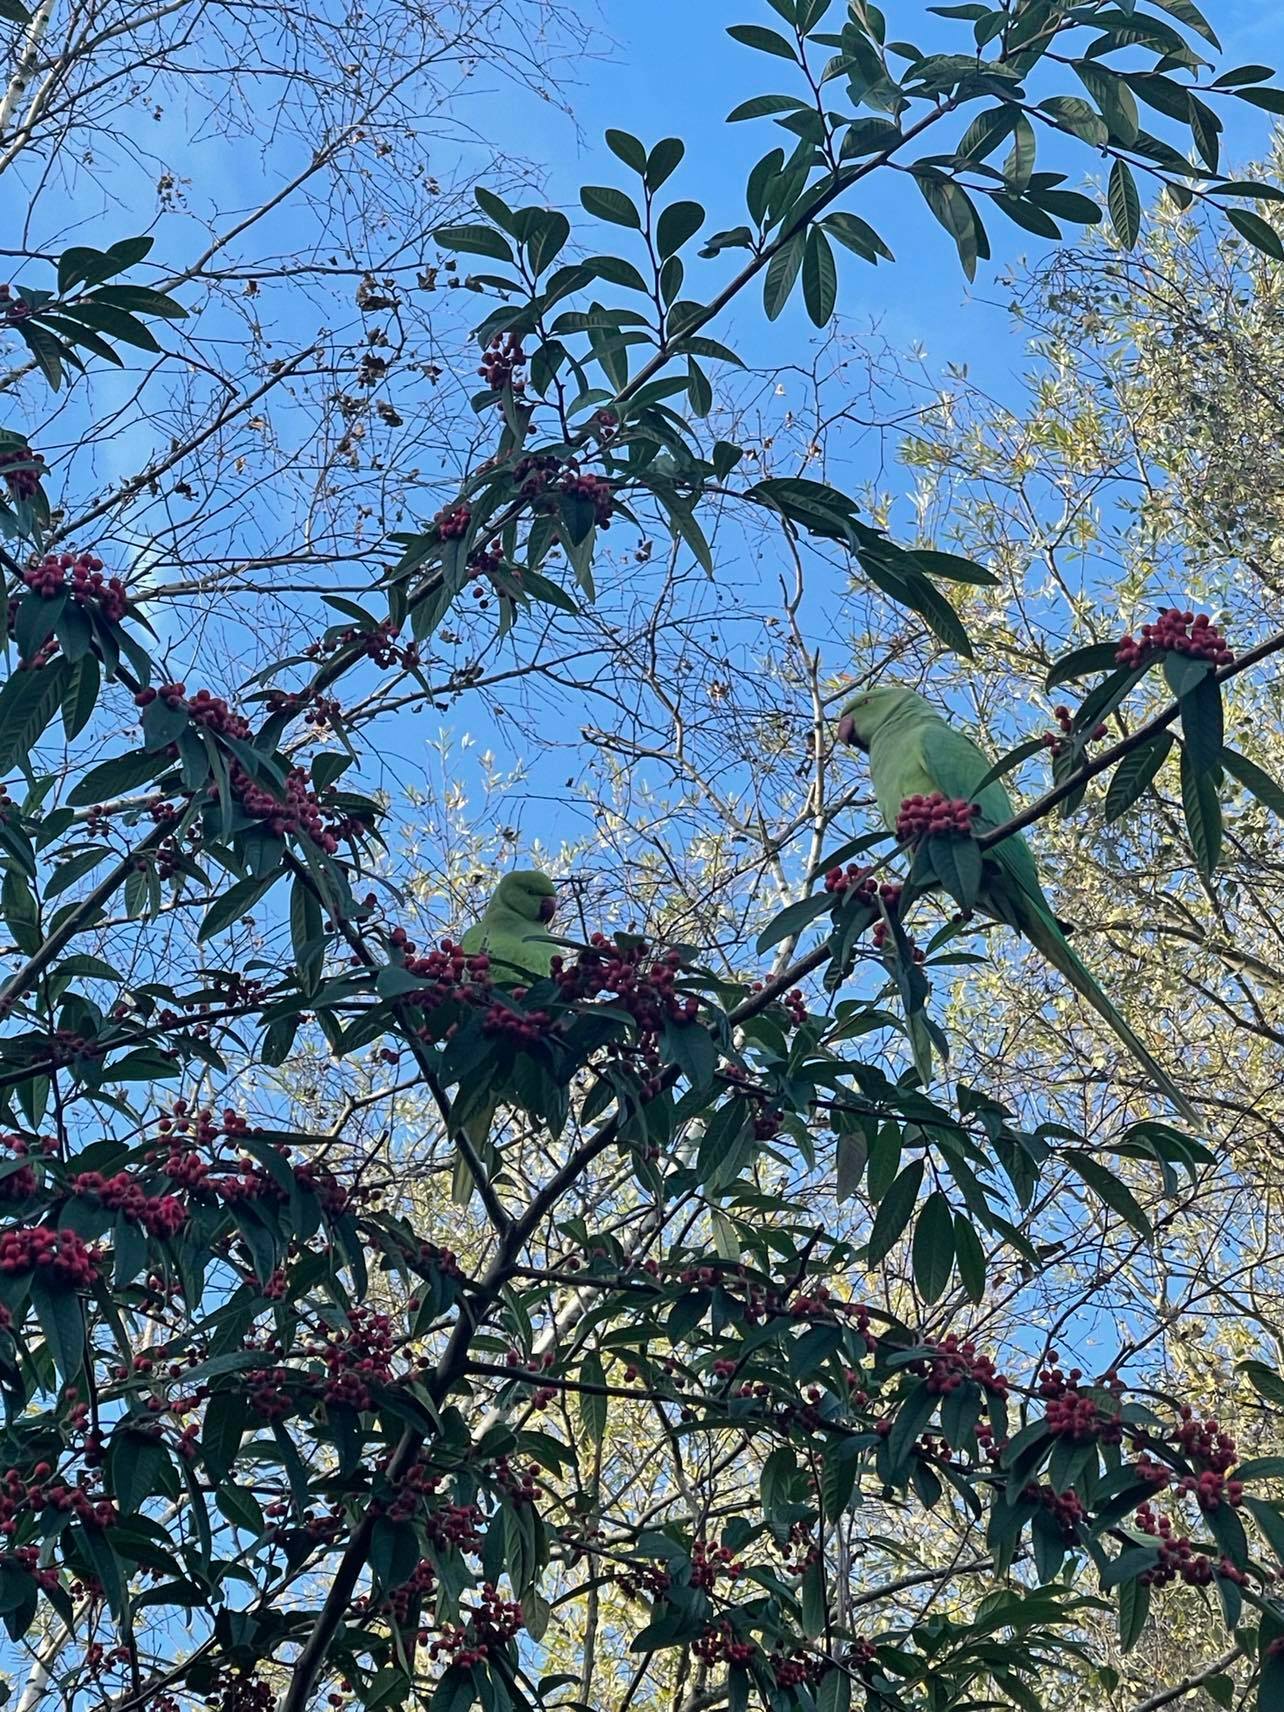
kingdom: Animalia
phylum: Chordata
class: Aves
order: Psittaciformes
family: Psittacidae
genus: Psittacula
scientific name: Psittacula krameri
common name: Rose-ringed parakeet
